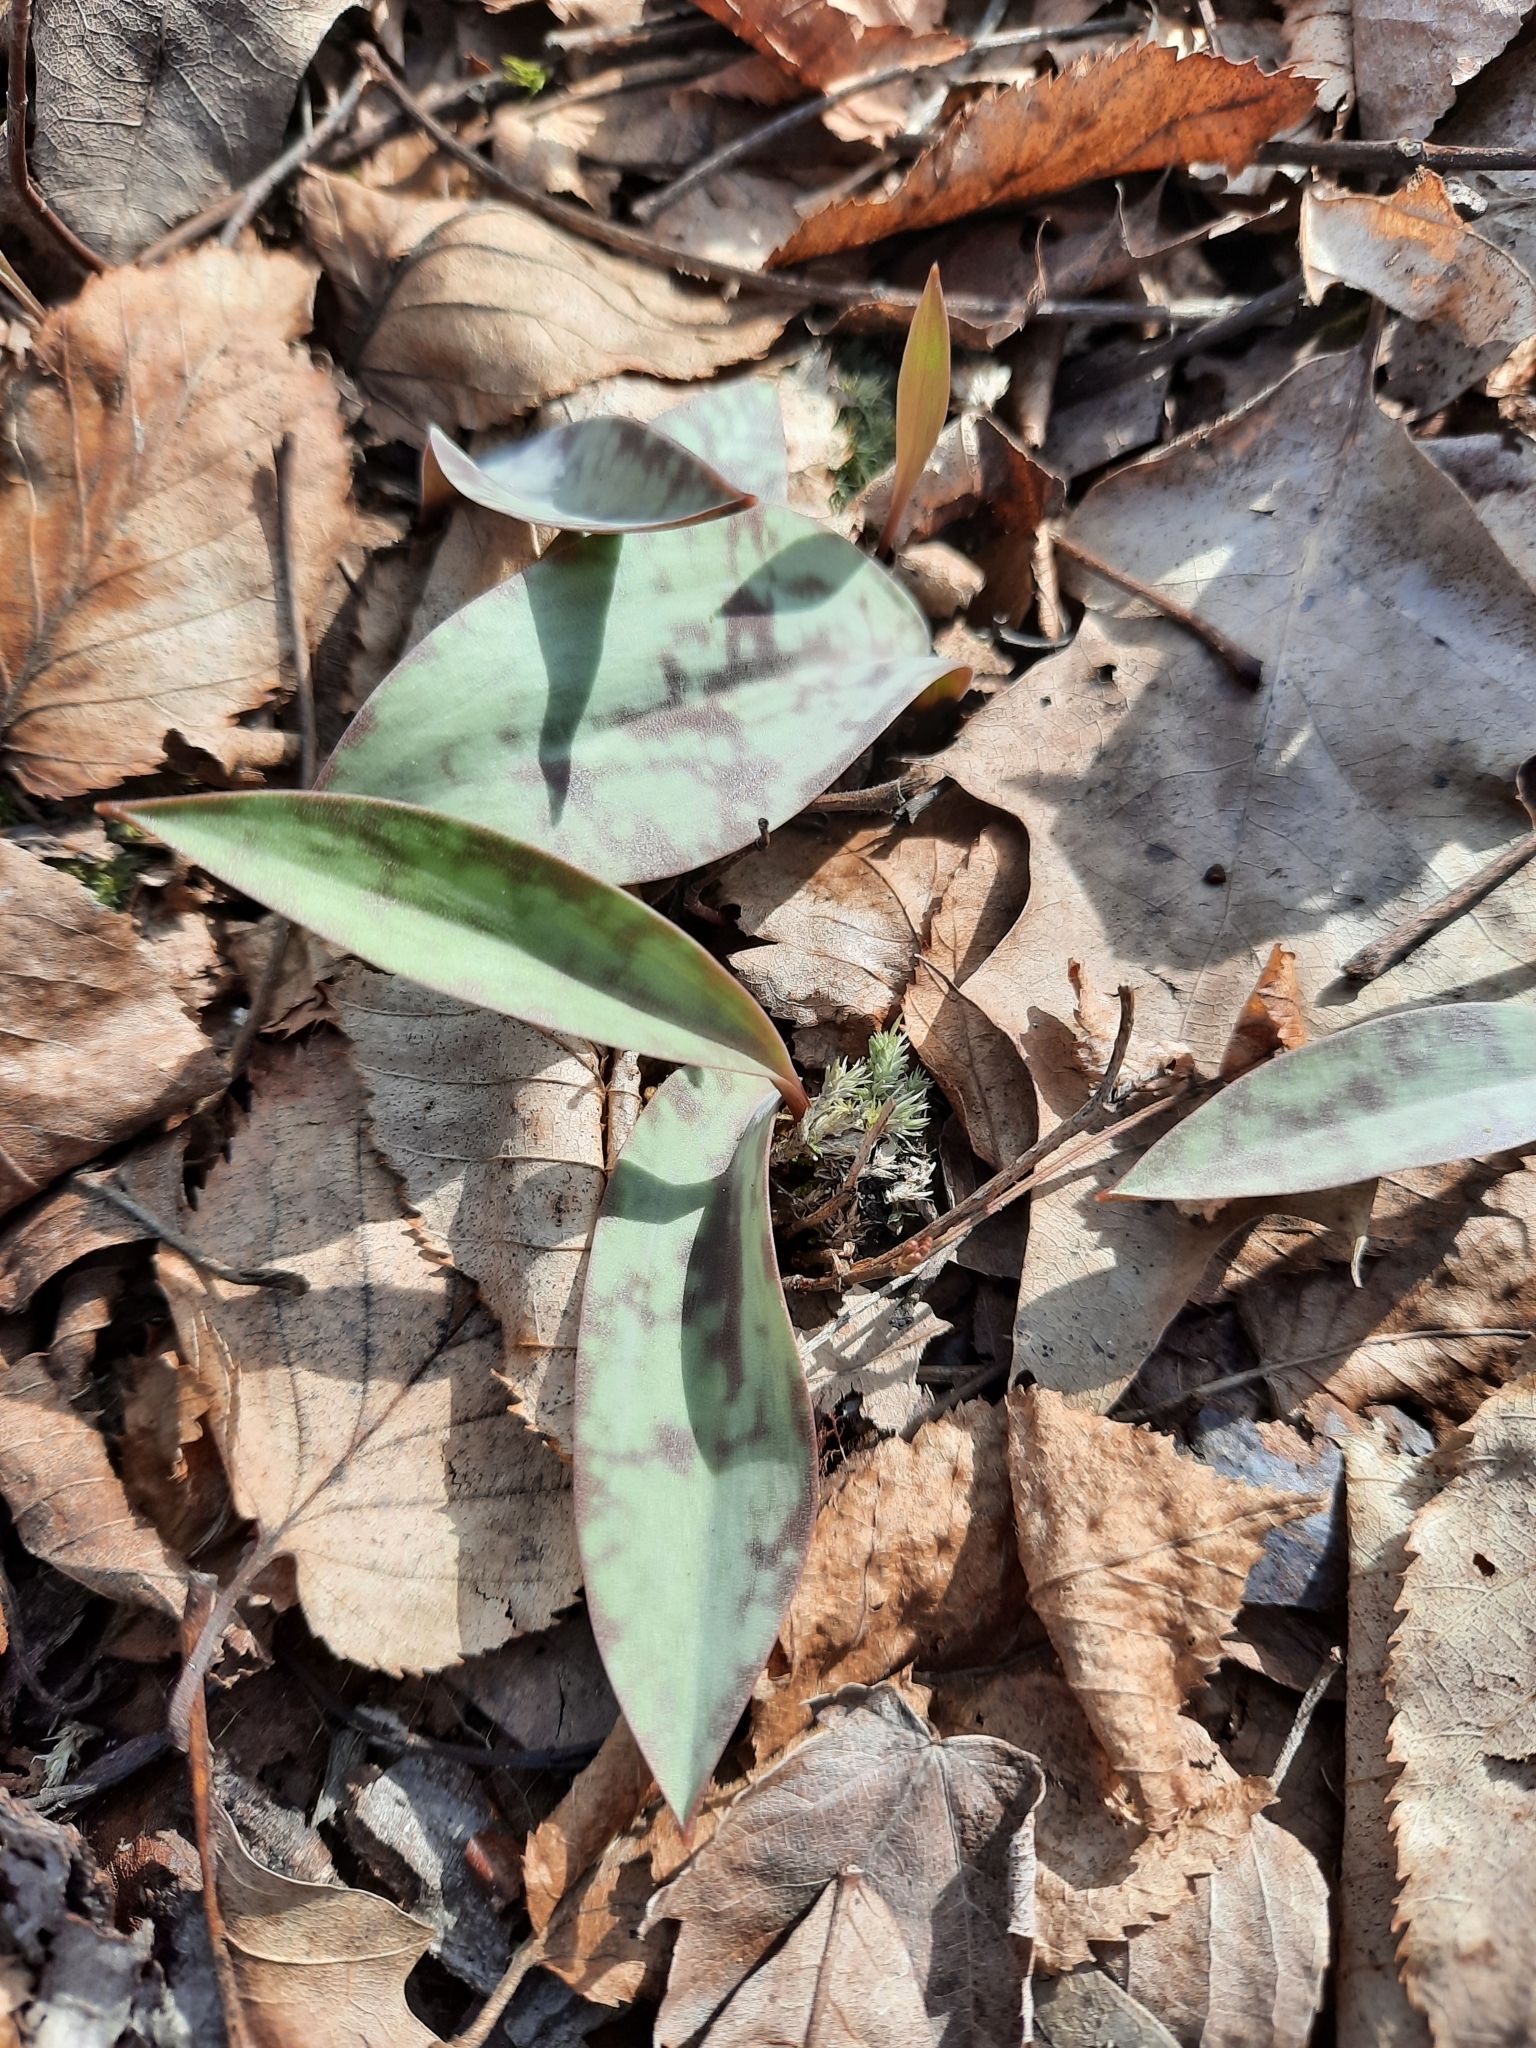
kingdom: Plantae
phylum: Tracheophyta
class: Liliopsida
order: Liliales
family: Liliaceae
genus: Erythronium
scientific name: Erythronium americanum
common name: Yellow adder's-tongue
